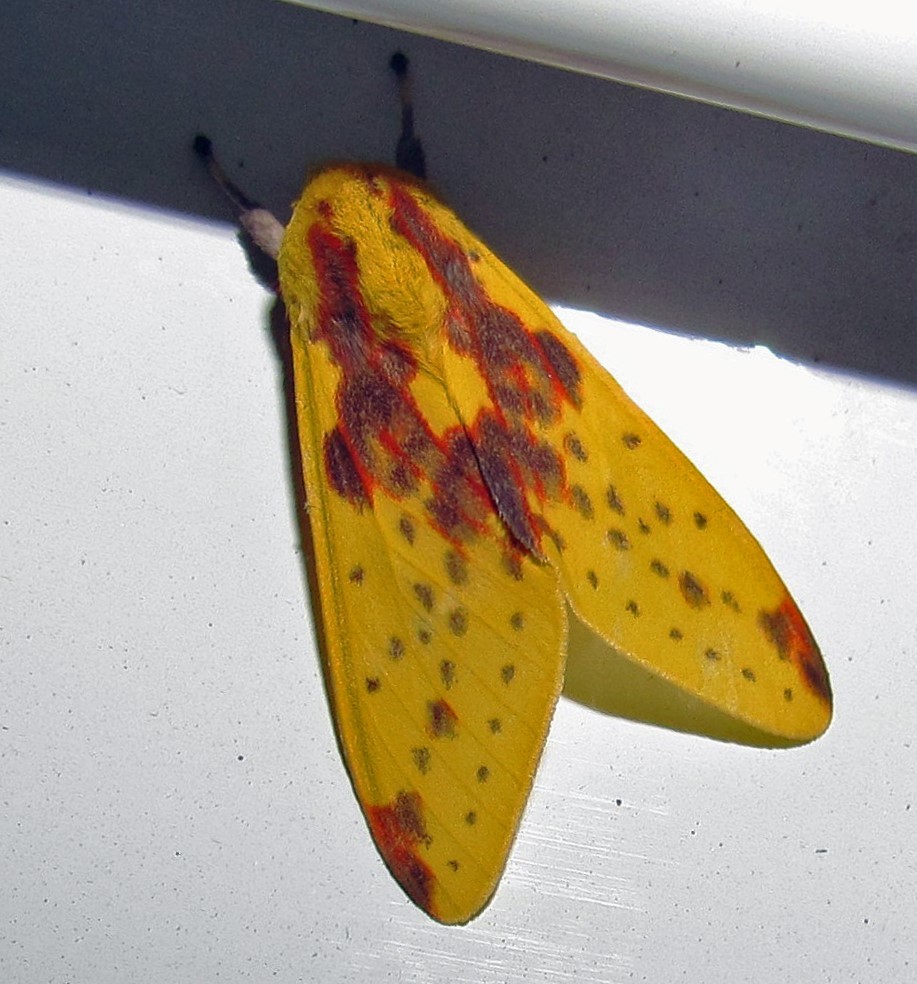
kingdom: Animalia
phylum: Arthropoda
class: Insecta
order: Lepidoptera
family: Erebidae
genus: Symphlebia
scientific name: Symphlebia distincta
